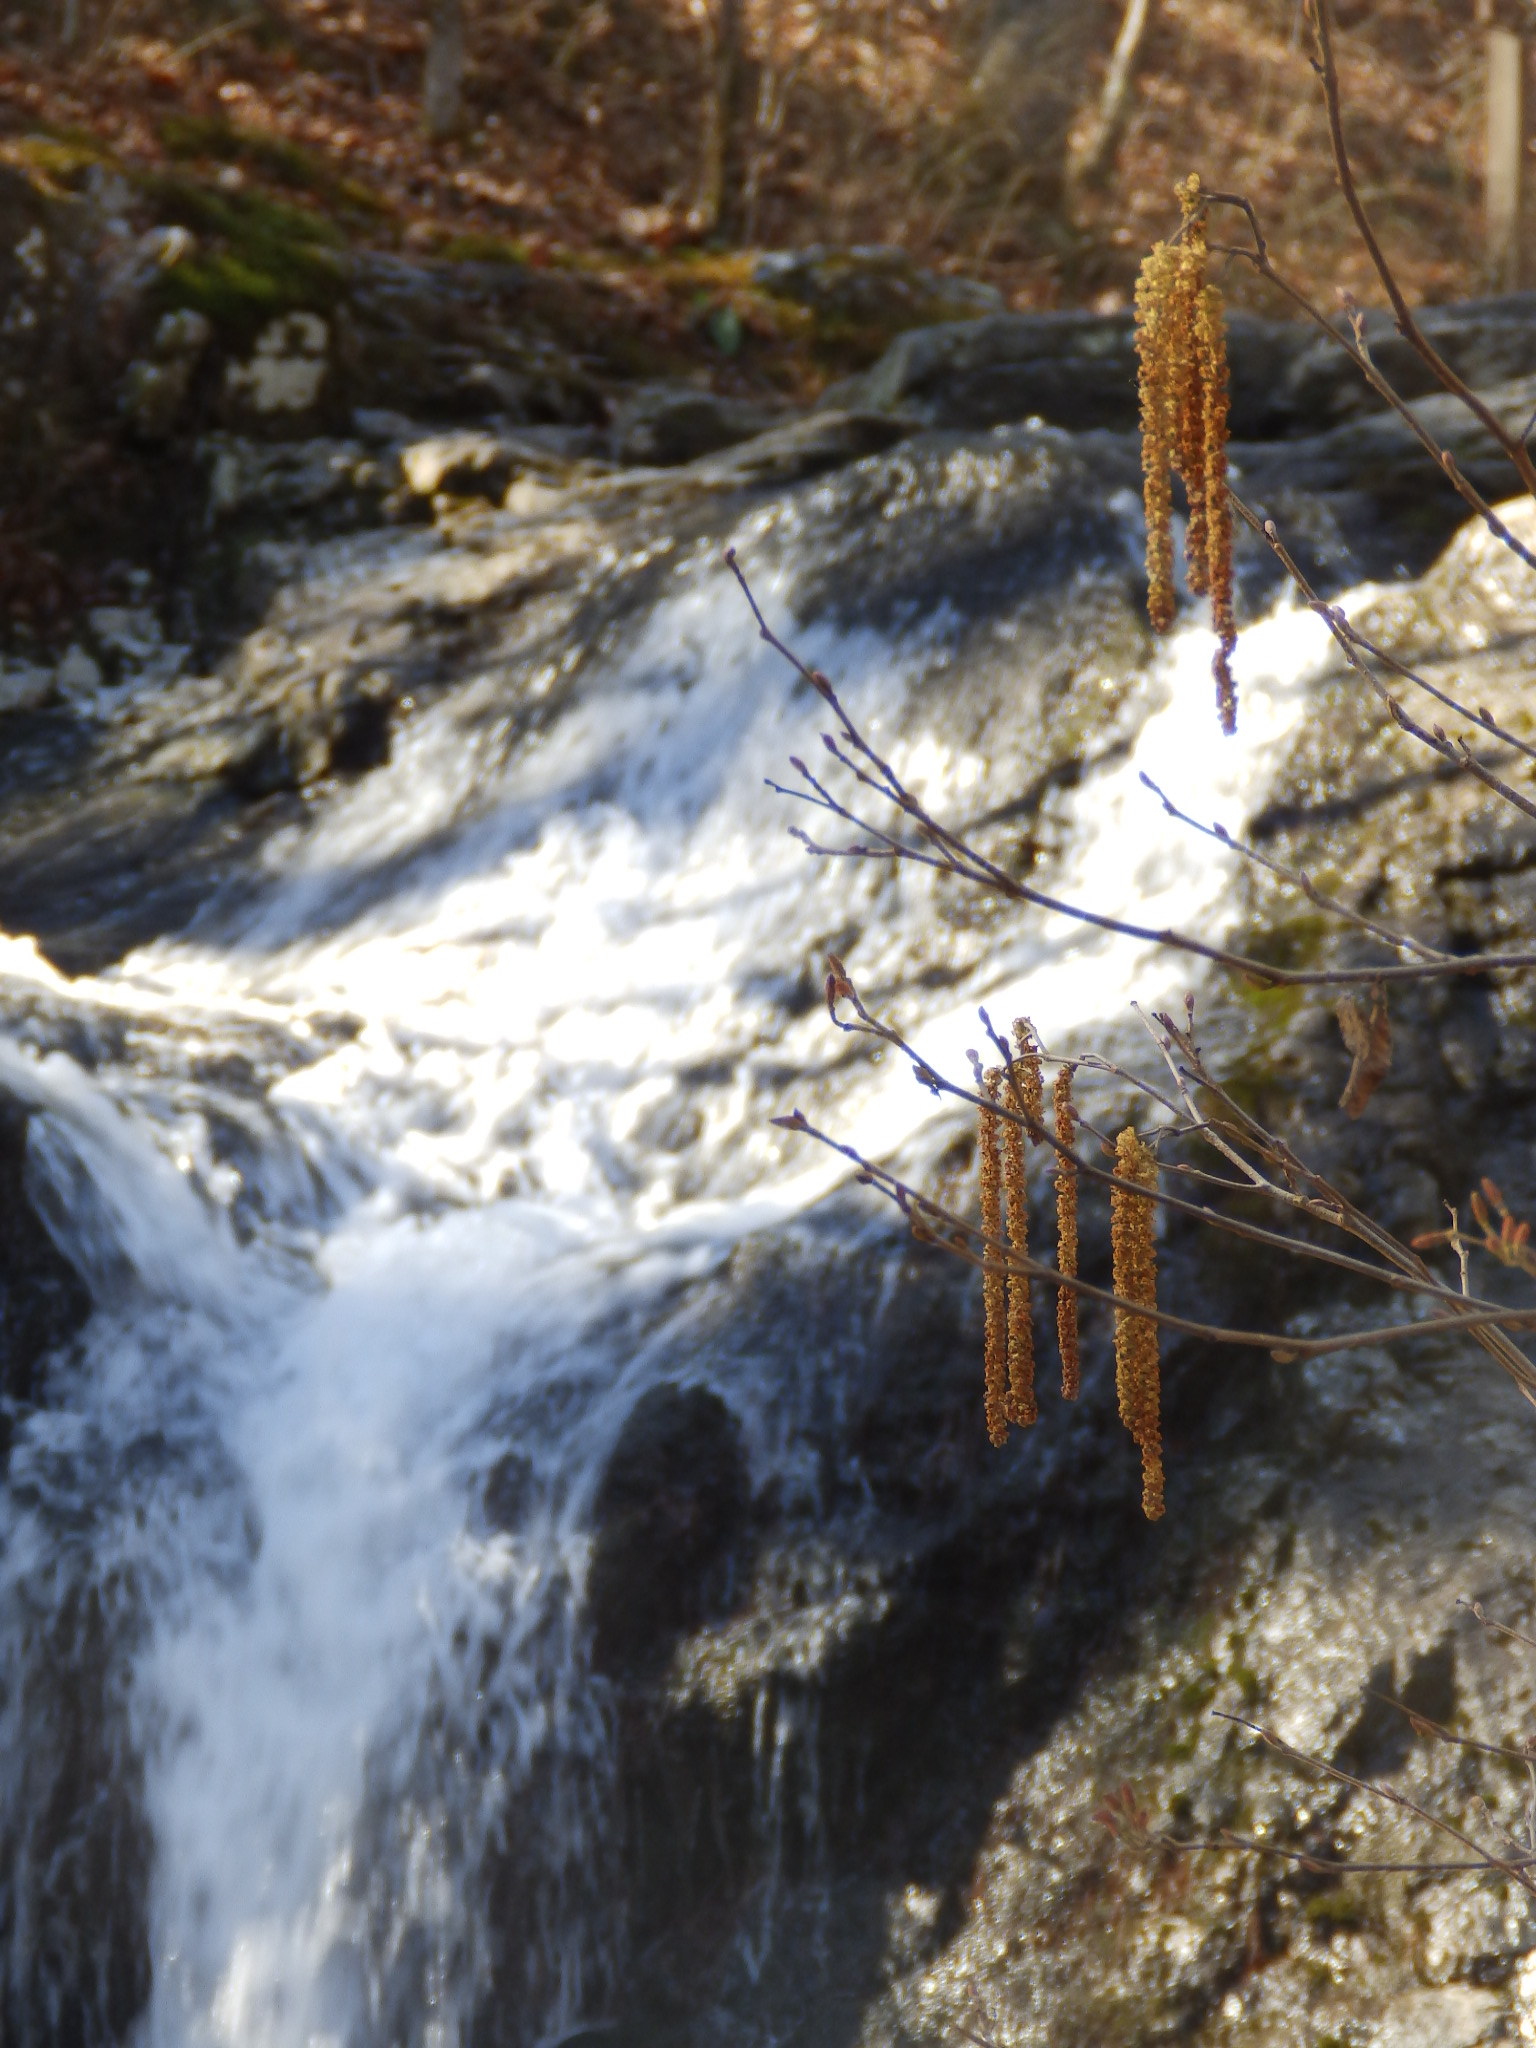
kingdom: Plantae
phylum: Tracheophyta
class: Magnoliopsida
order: Fagales
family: Betulaceae
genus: Alnus
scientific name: Alnus serrulata
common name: Hazel alder
